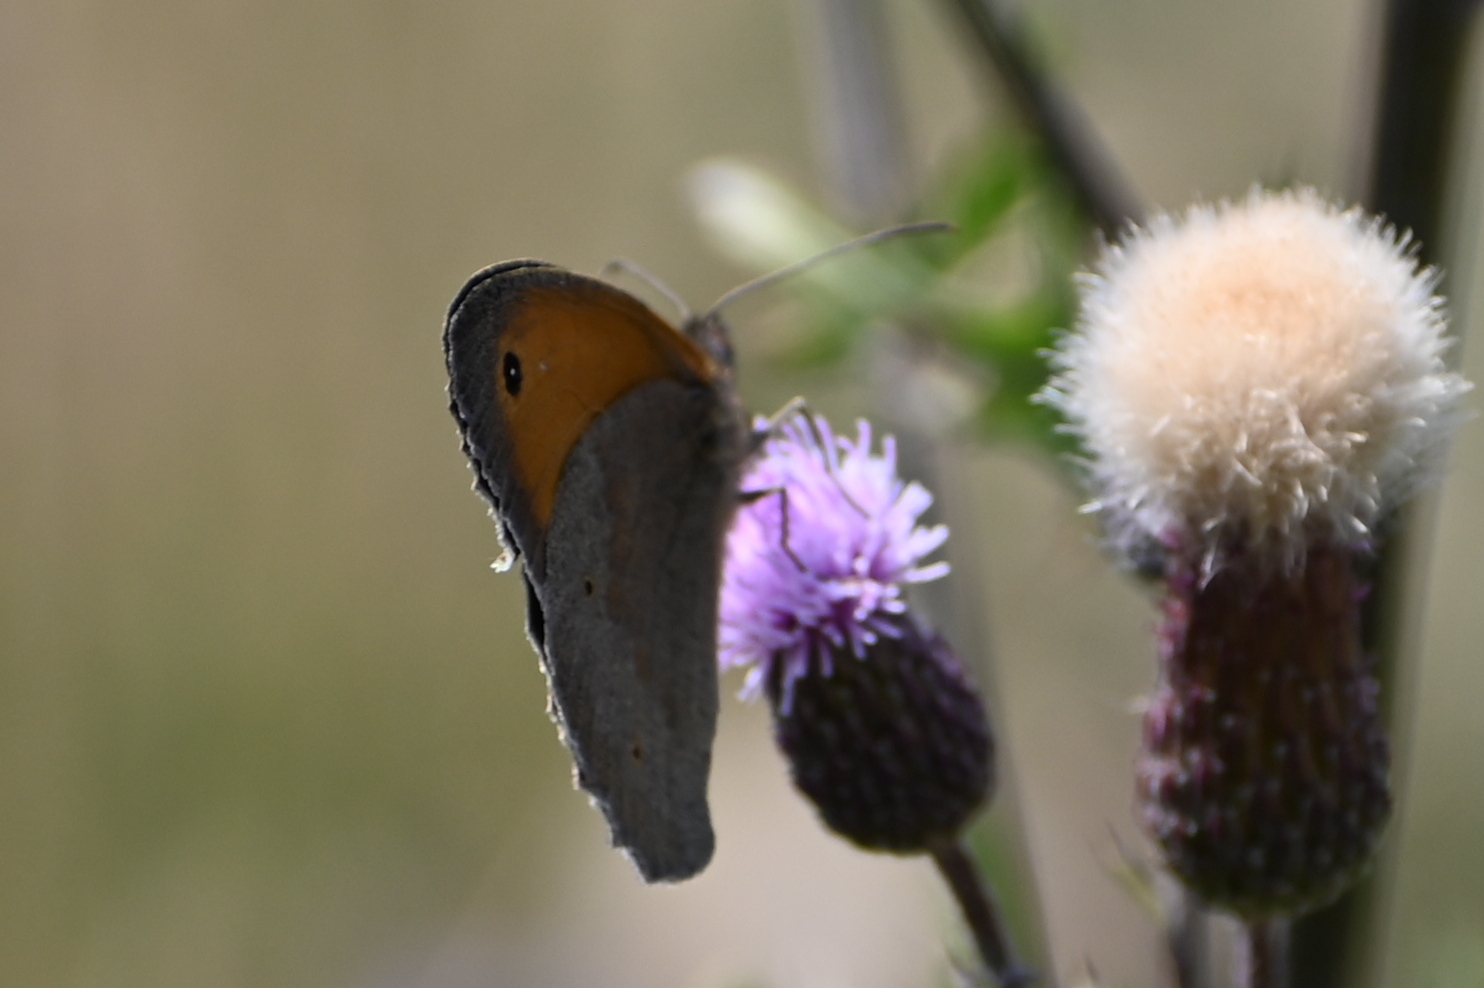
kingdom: Animalia
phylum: Arthropoda
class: Insecta
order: Lepidoptera
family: Nymphalidae
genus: Maniola
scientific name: Maniola jurtina
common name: Meadow brown
